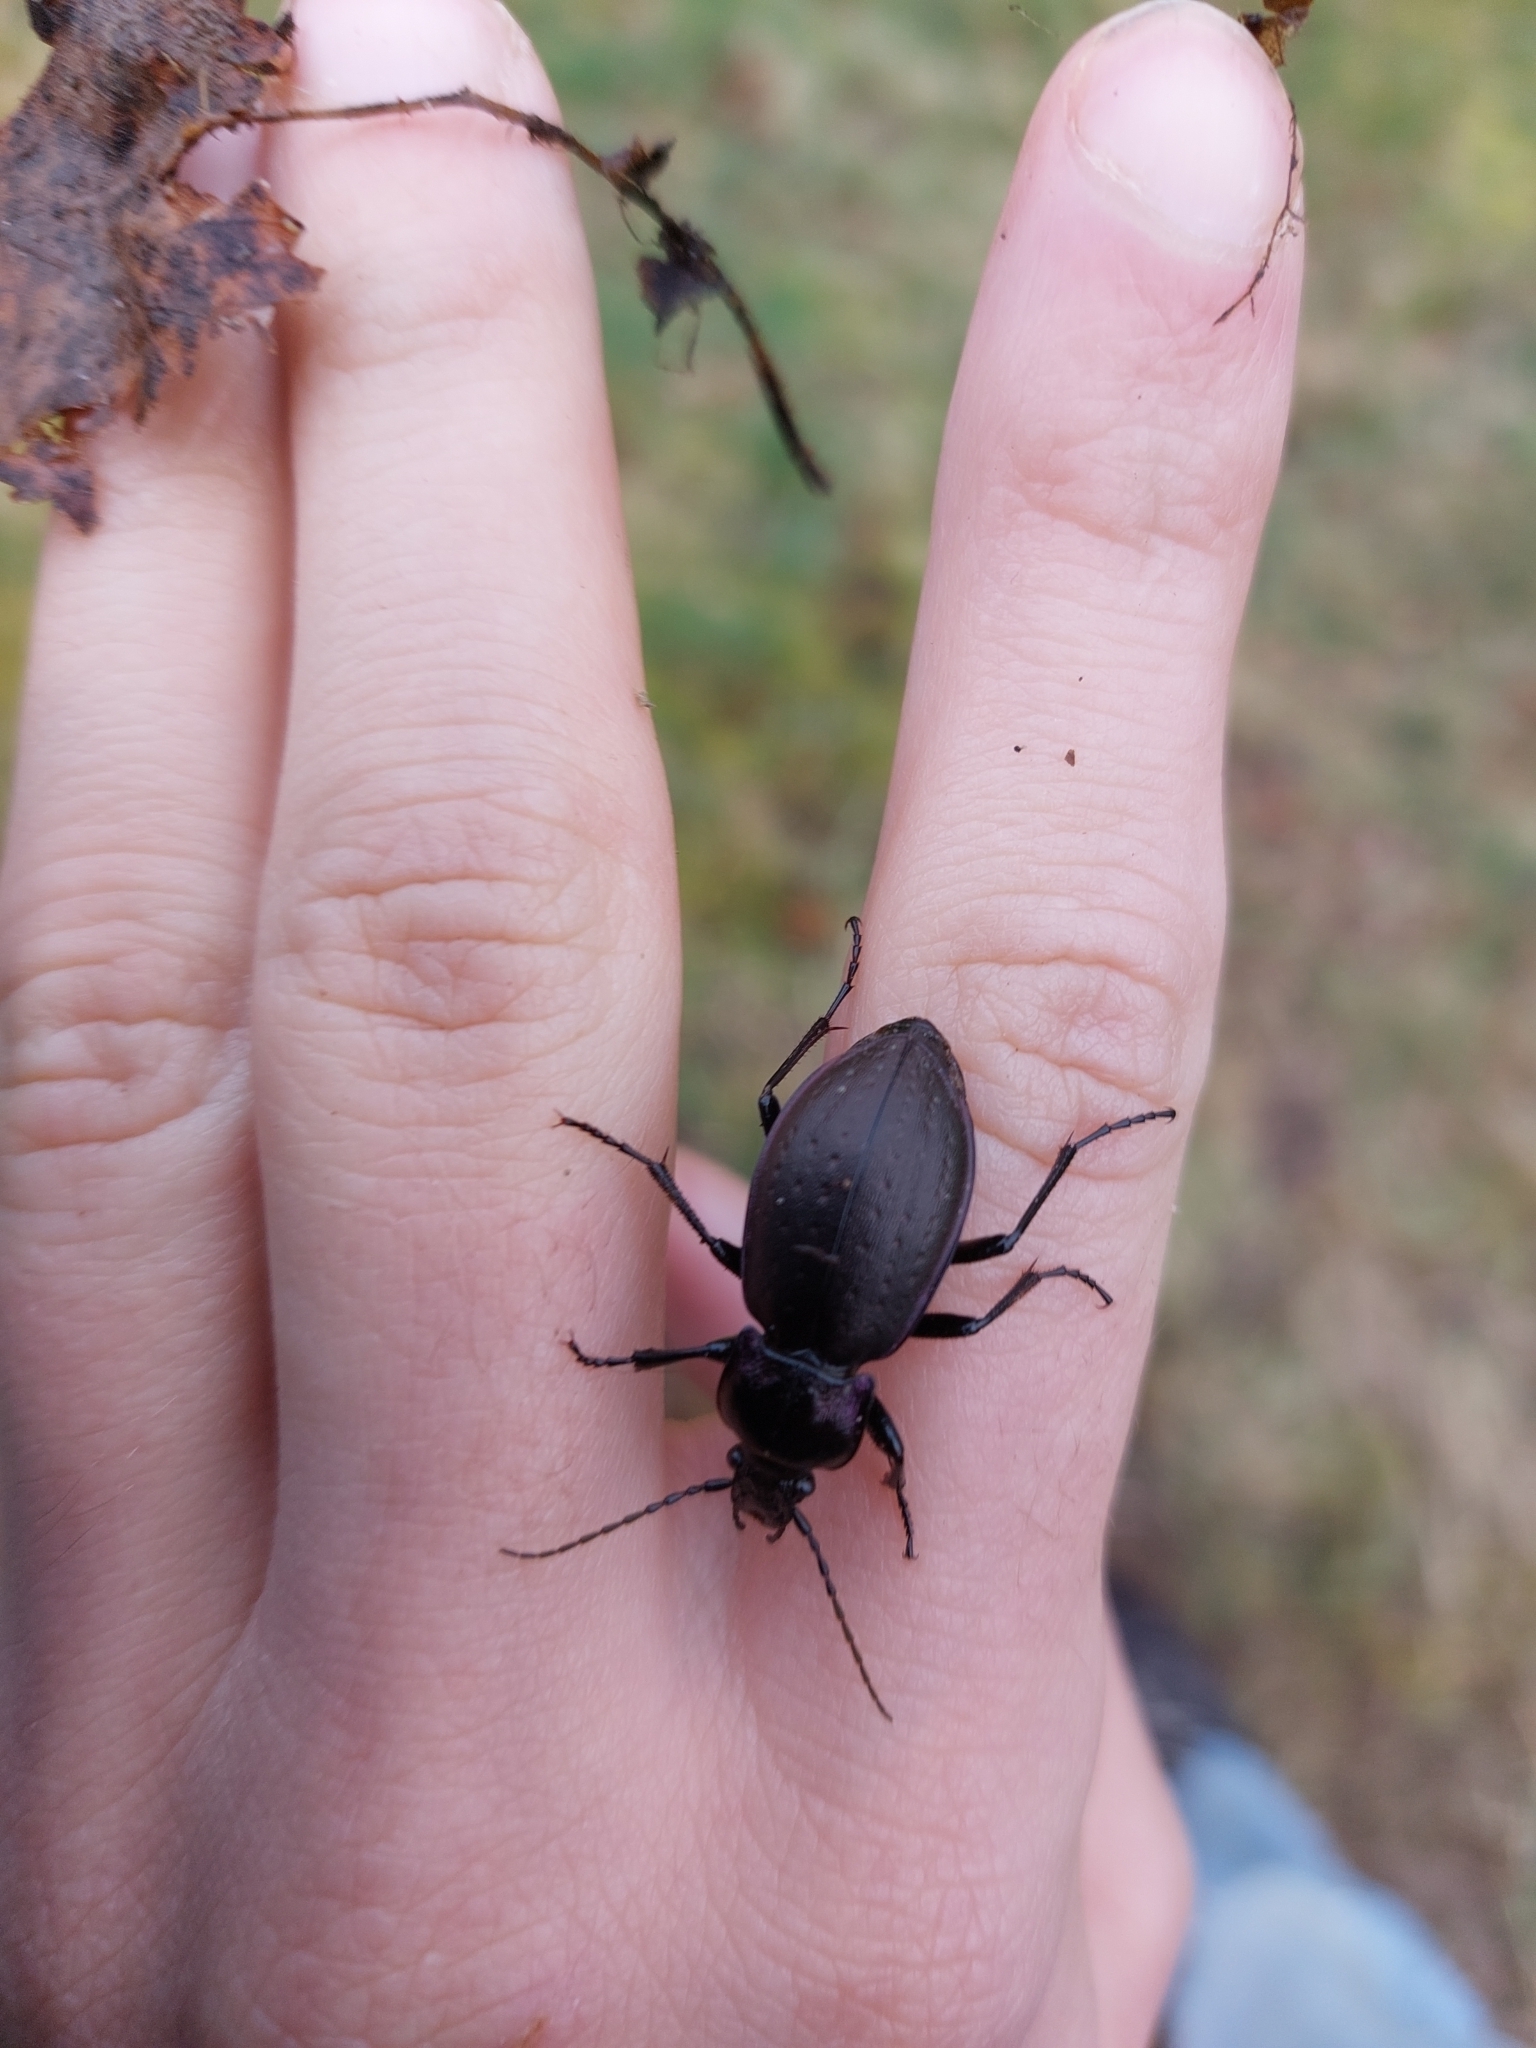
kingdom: Animalia
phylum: Arthropoda
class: Insecta
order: Coleoptera
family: Carabidae
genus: Carabus
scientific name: Carabus nemoralis
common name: European ground beetle
